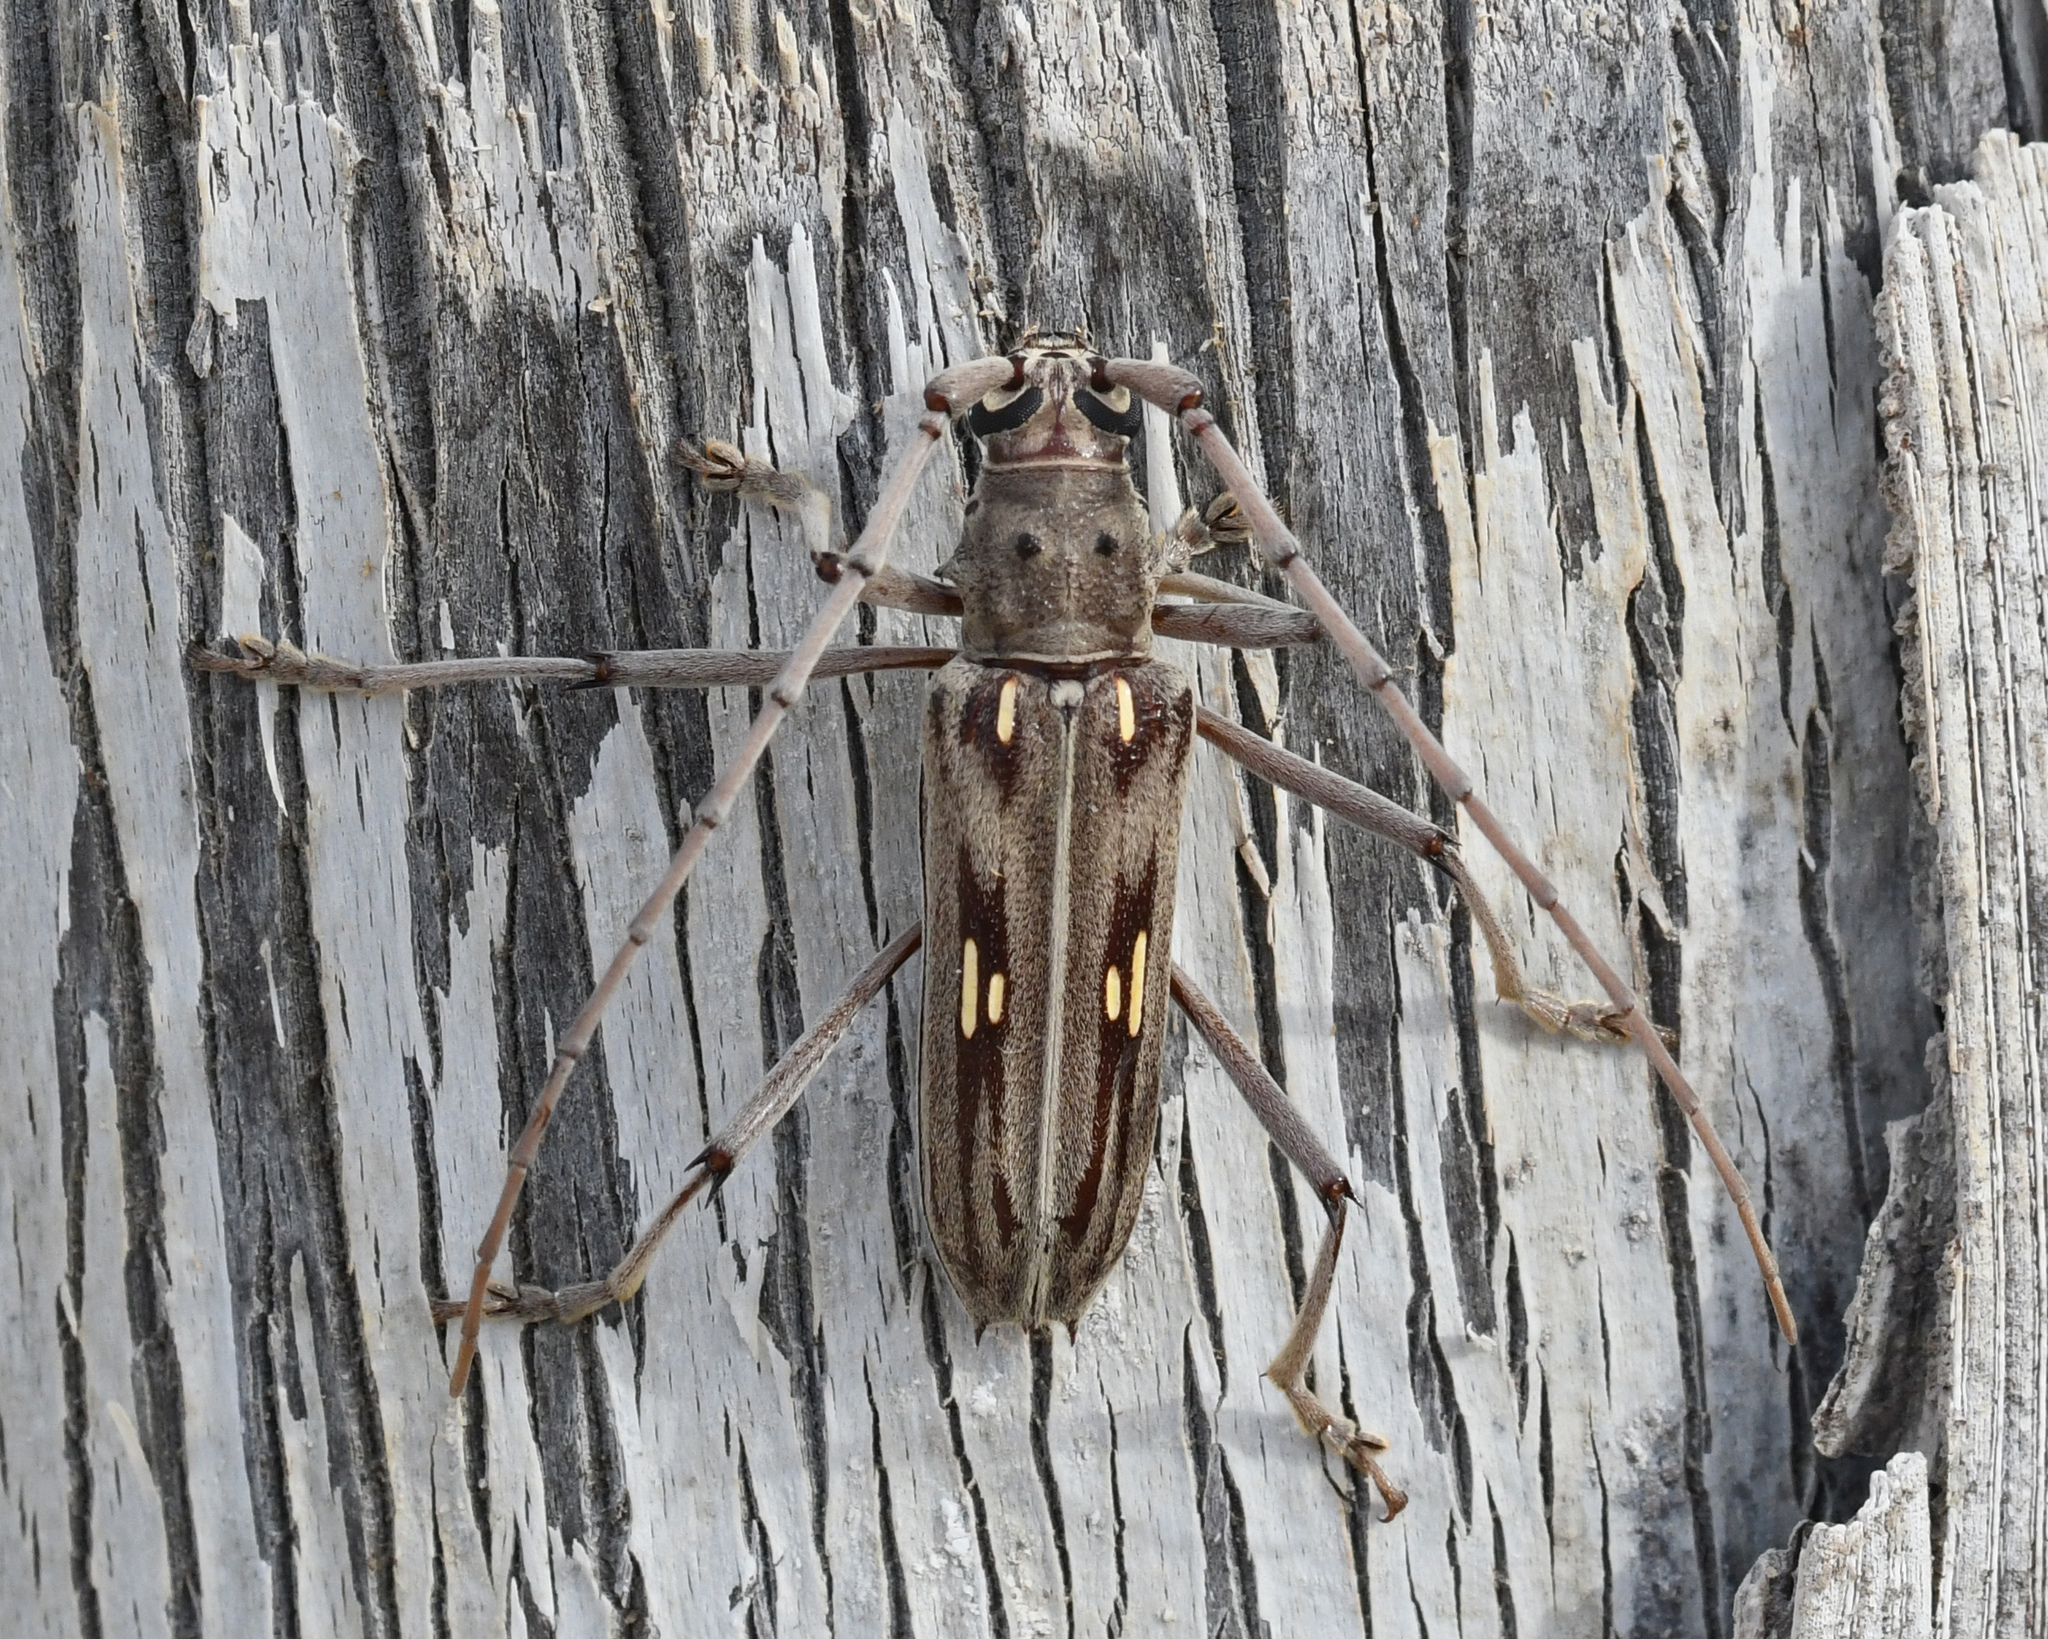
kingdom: Animalia
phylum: Arthropoda
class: Insecta
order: Coleoptera
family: Cerambycidae
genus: Eburia
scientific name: Eburia stigma
